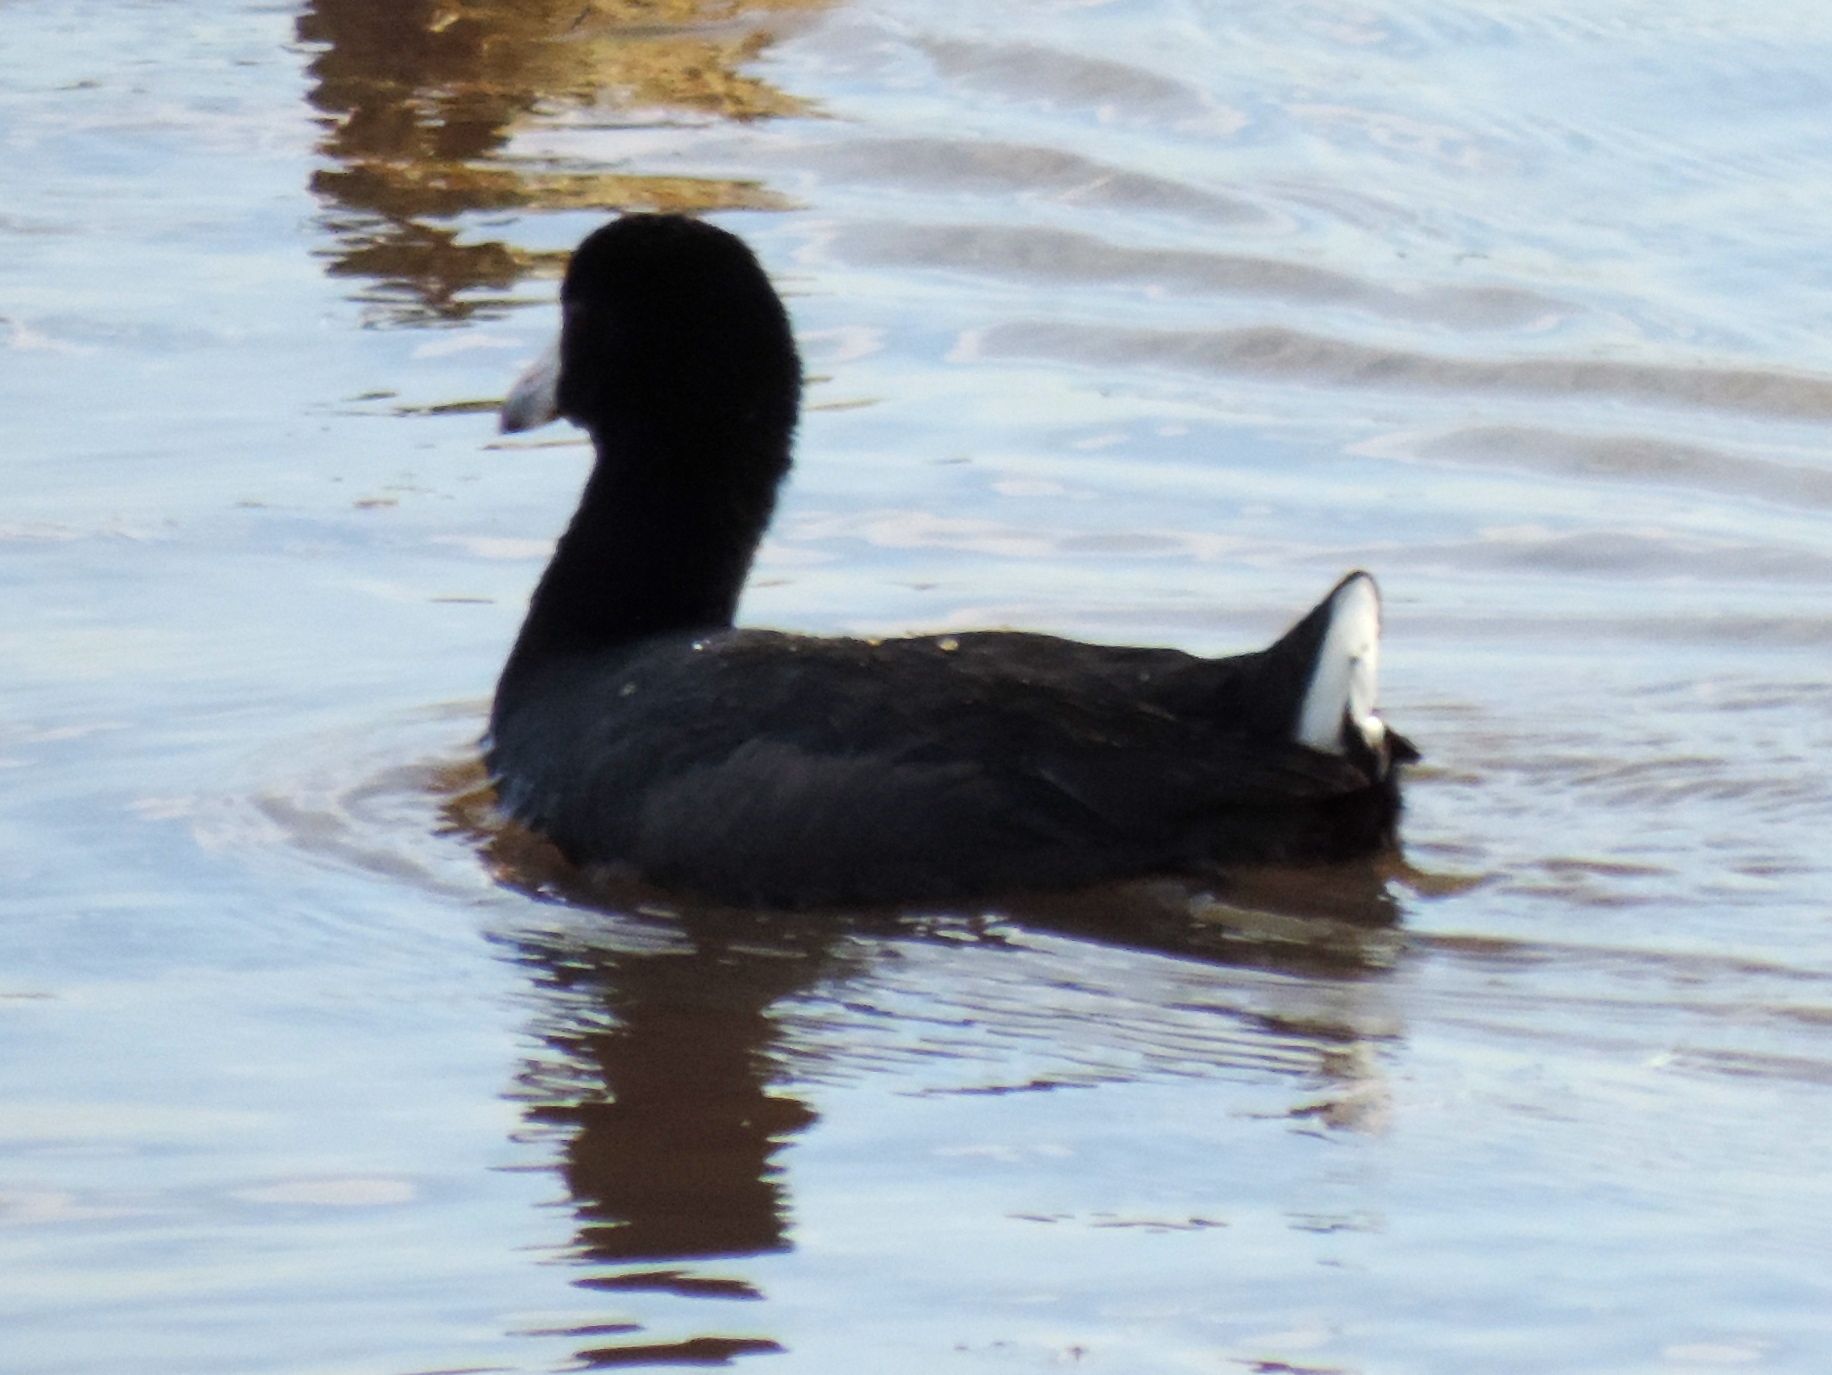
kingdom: Animalia
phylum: Chordata
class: Aves
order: Gruiformes
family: Rallidae
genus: Fulica
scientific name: Fulica americana
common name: American coot
